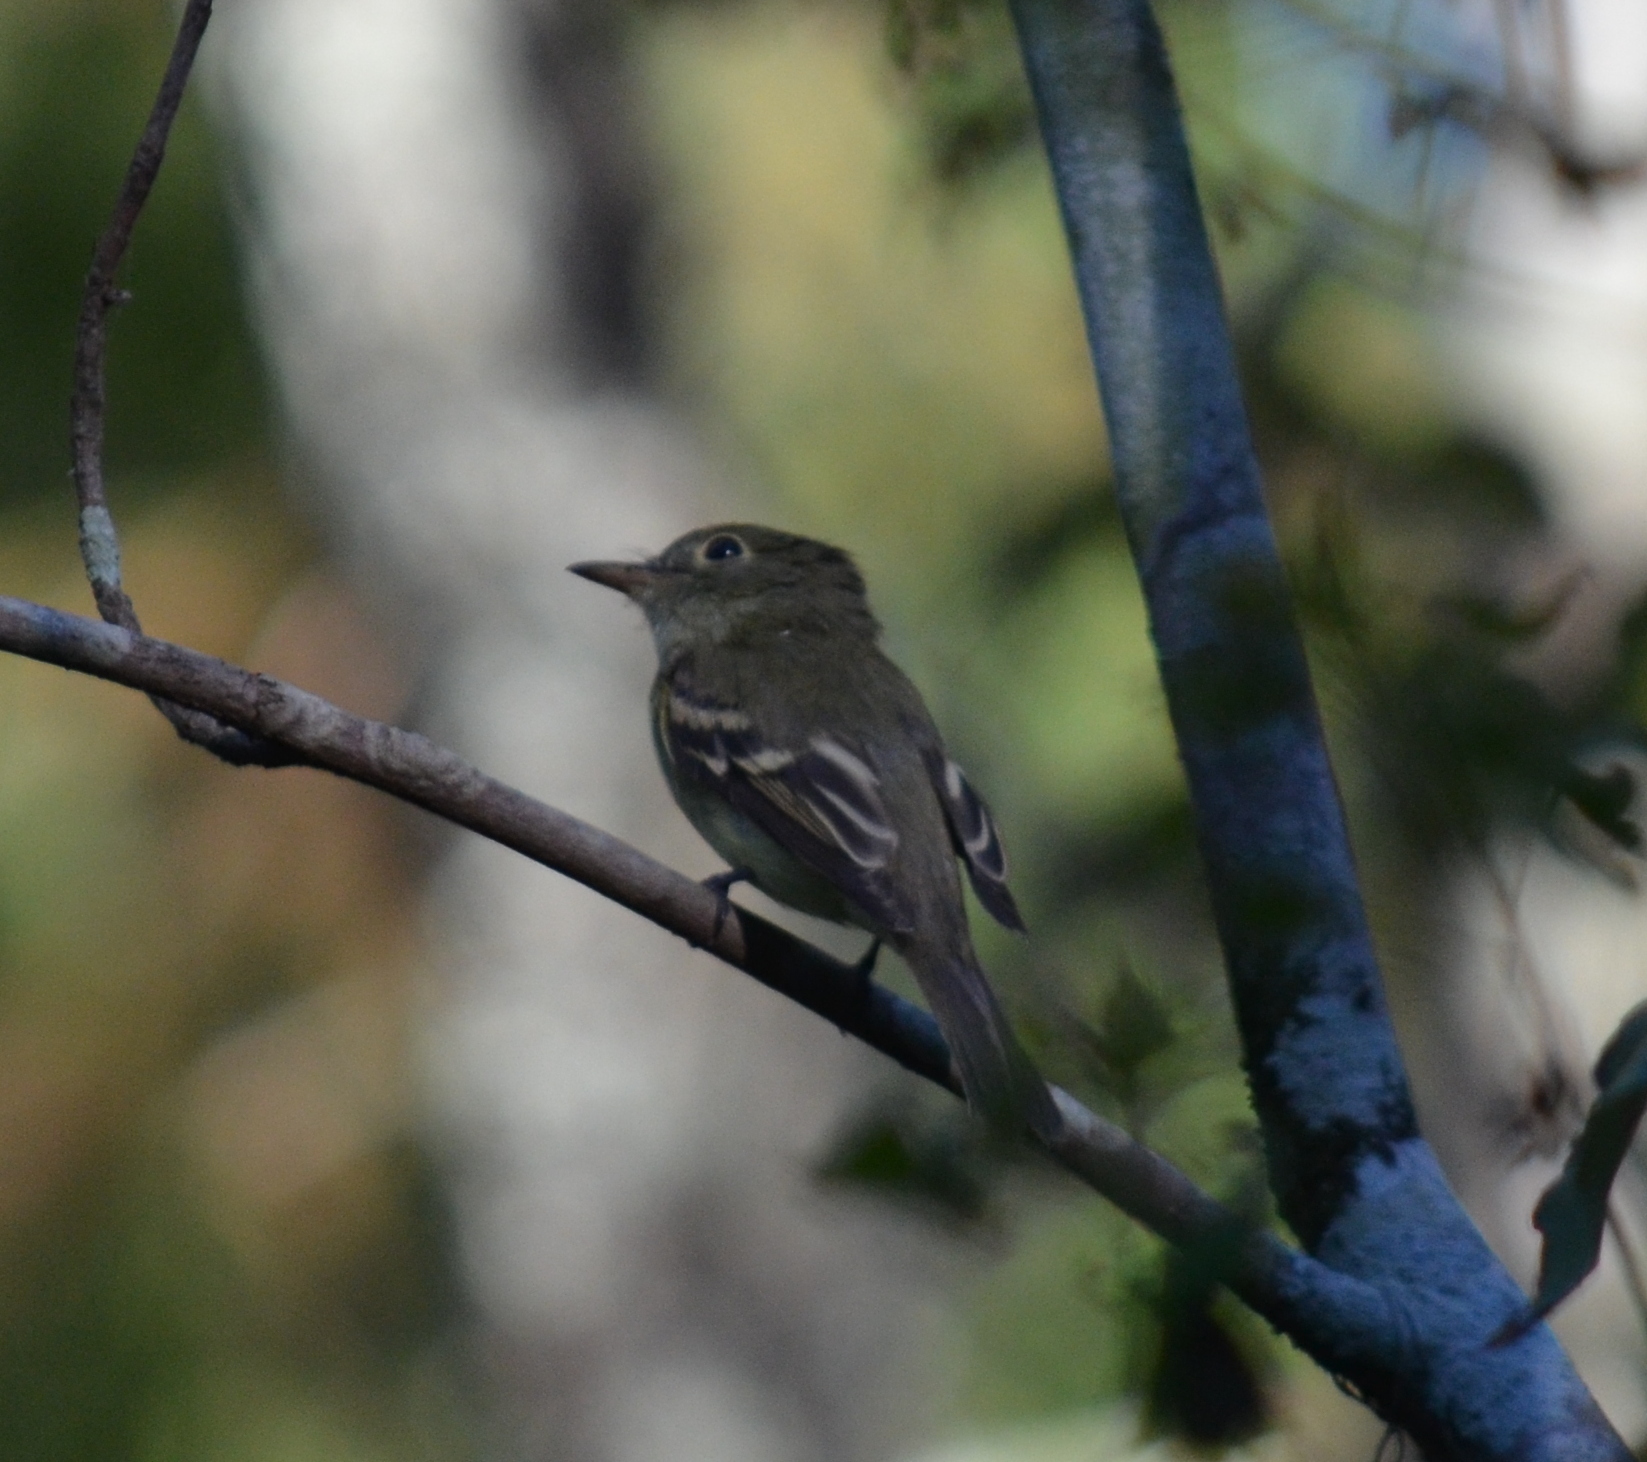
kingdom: Animalia
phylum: Chordata
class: Aves
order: Passeriformes
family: Tyrannidae
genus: Empidonax
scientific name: Empidonax minimus
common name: Least flycatcher
